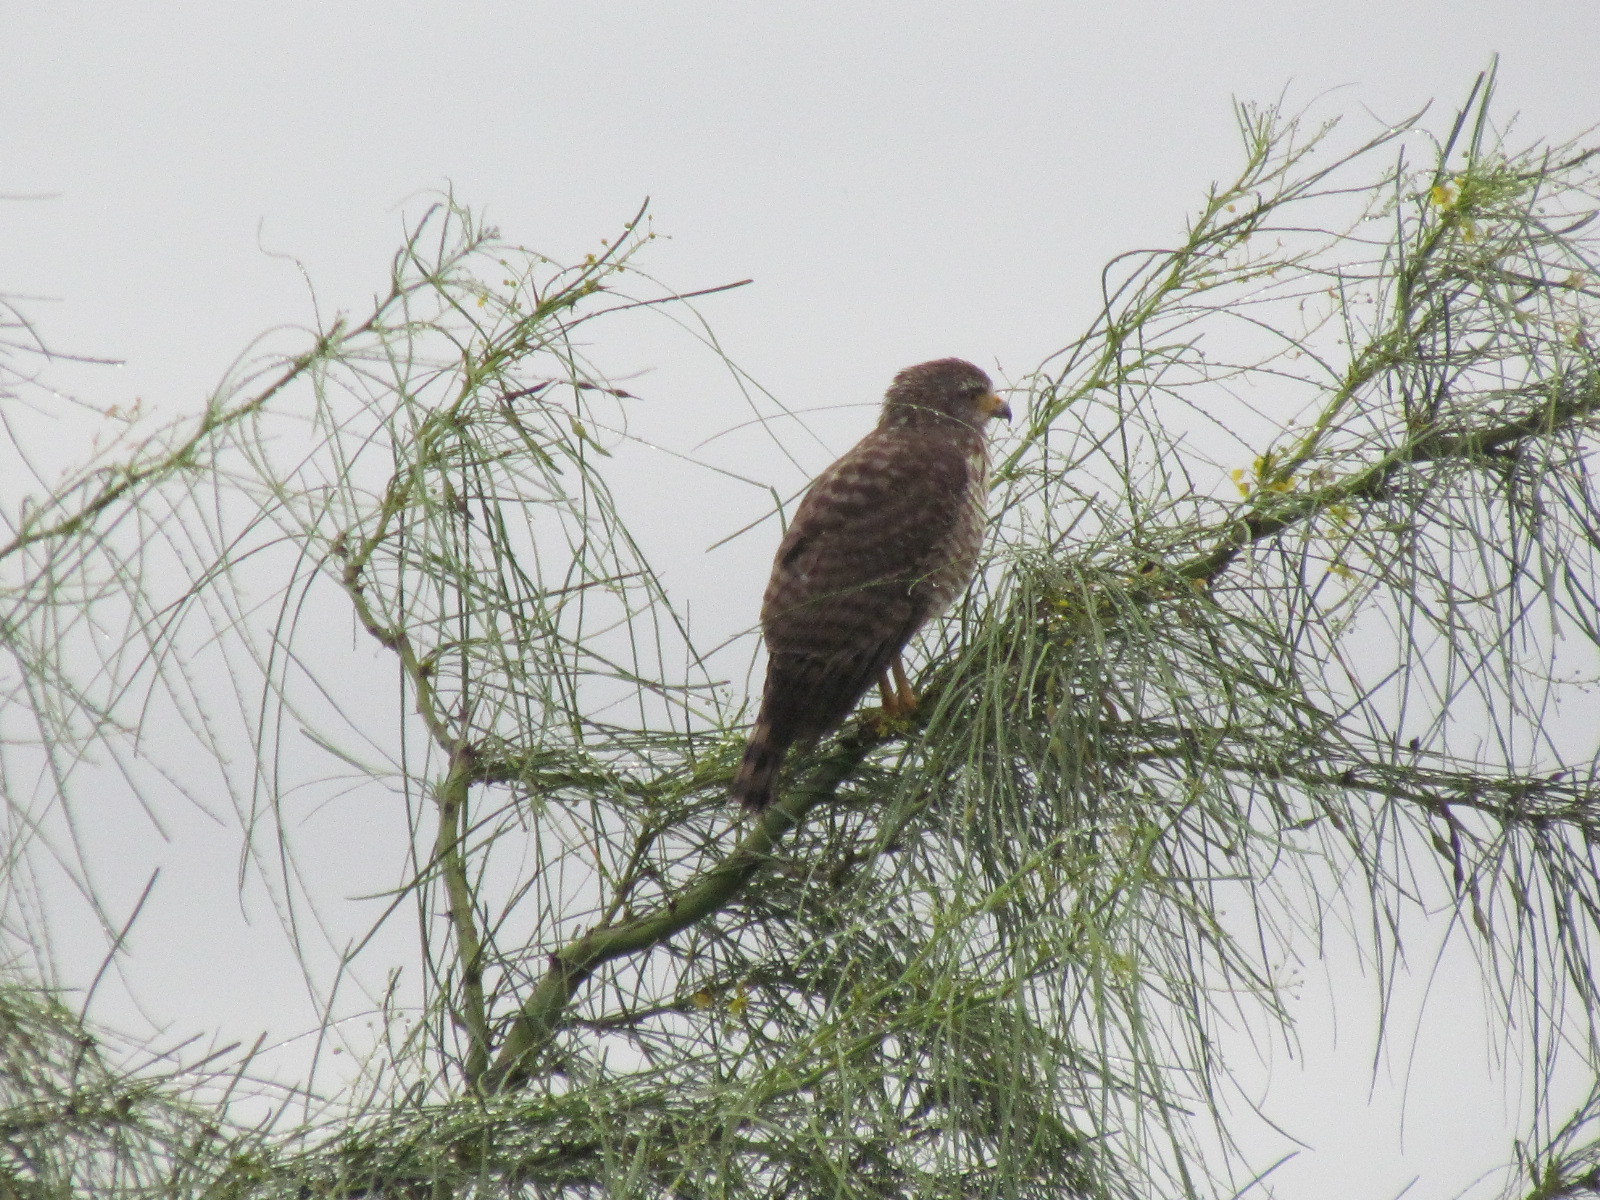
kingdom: Animalia
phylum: Chordata
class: Aves
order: Accipitriformes
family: Accipitridae
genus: Rupornis
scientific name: Rupornis magnirostris
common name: Roadside hawk
